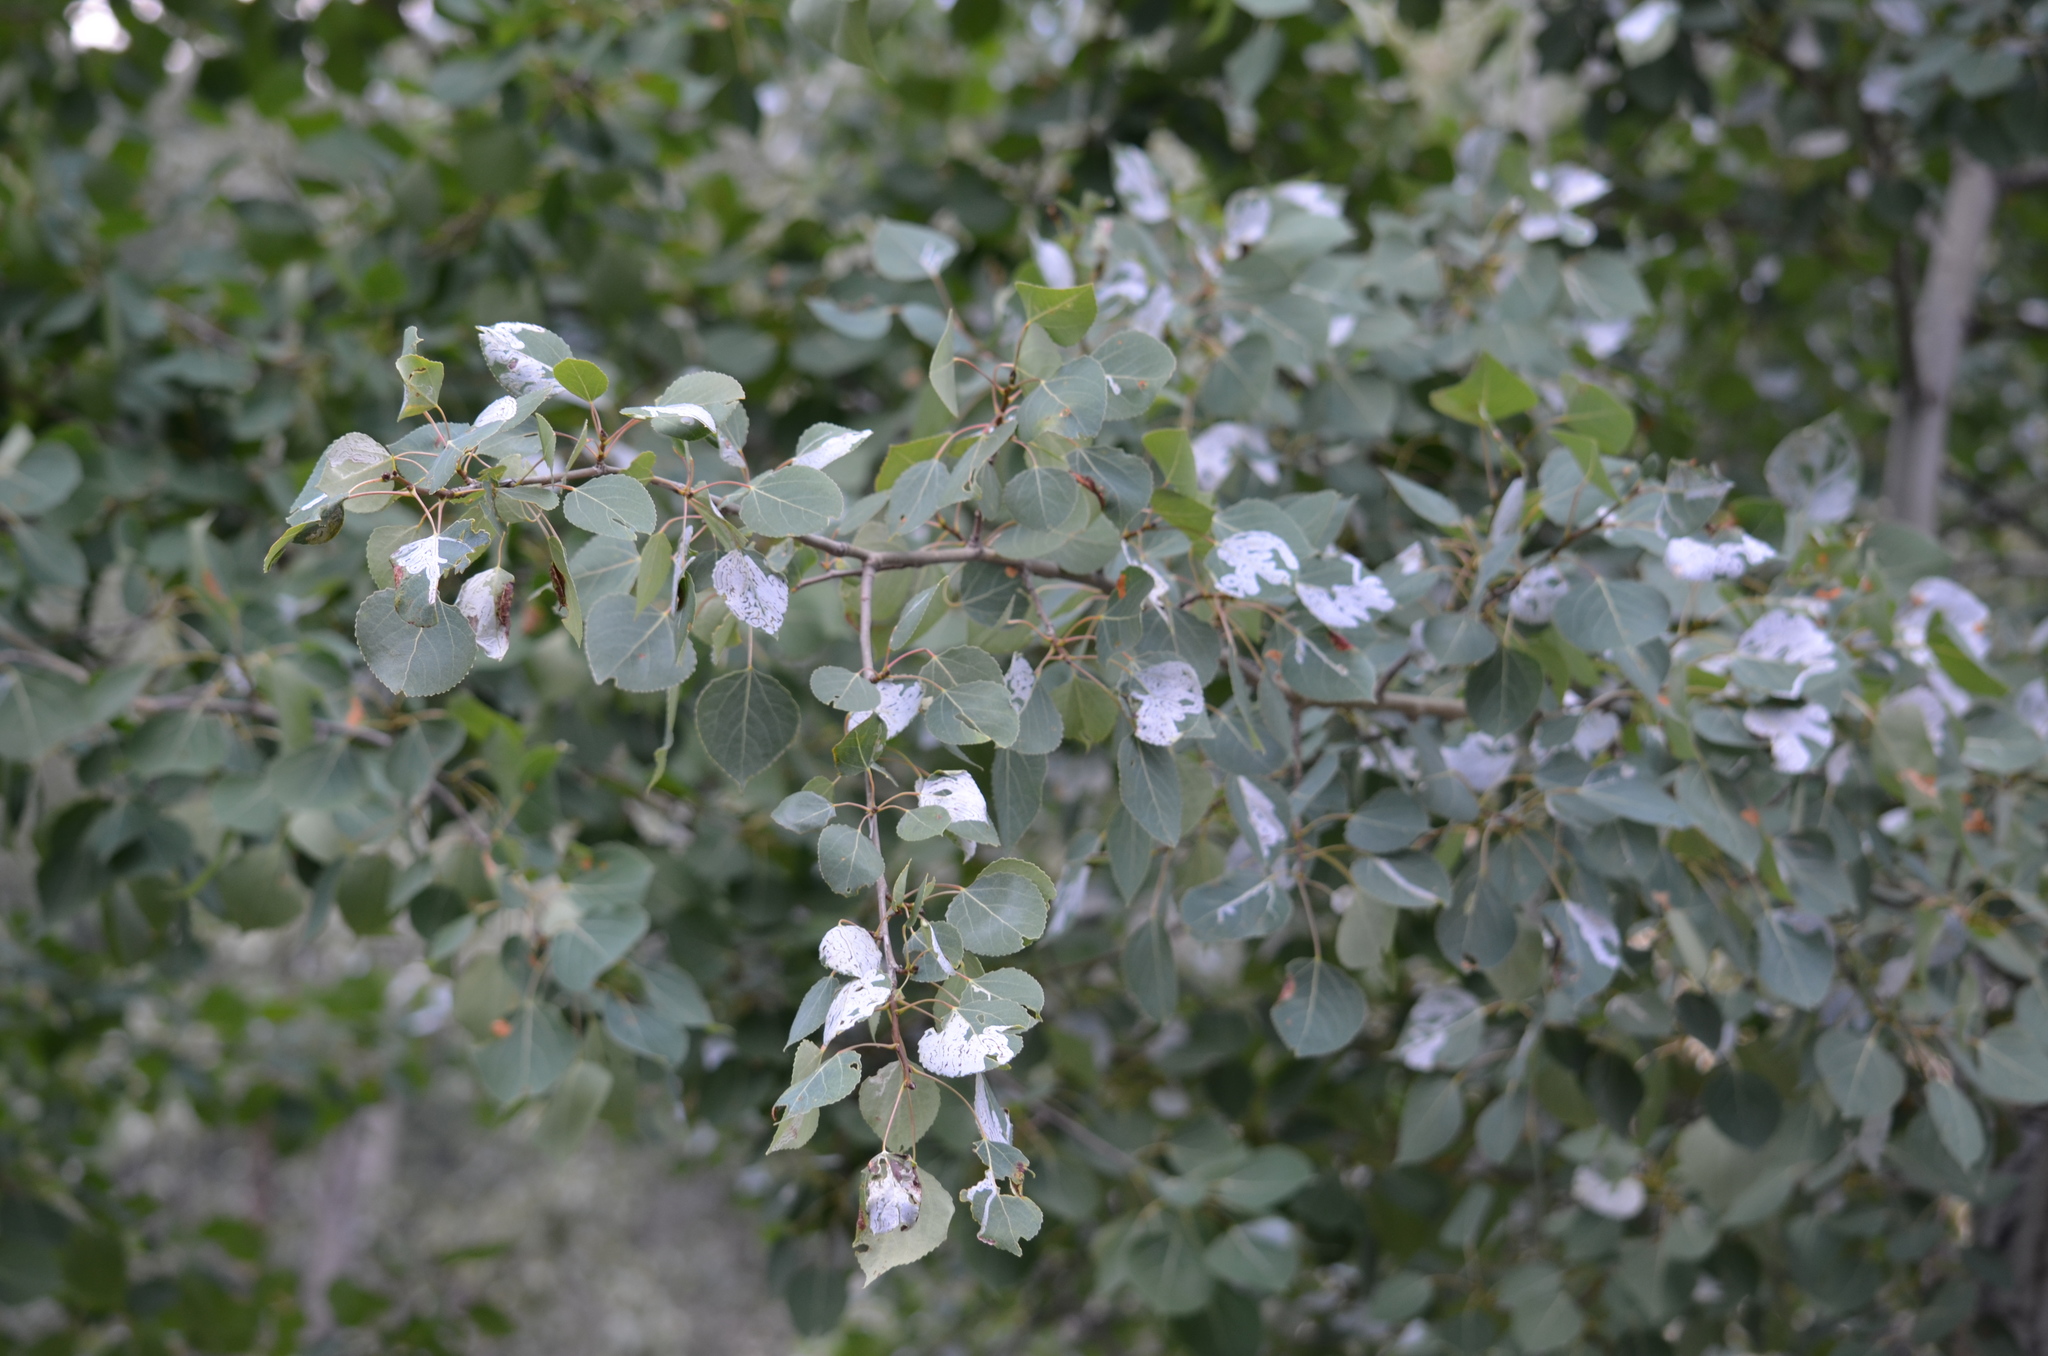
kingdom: Animalia
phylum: Arthropoda
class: Insecta
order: Lepidoptera
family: Gracillariidae
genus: Phyllocnistis
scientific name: Phyllocnistis populiella
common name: Aspen serpentine leafminer moth
